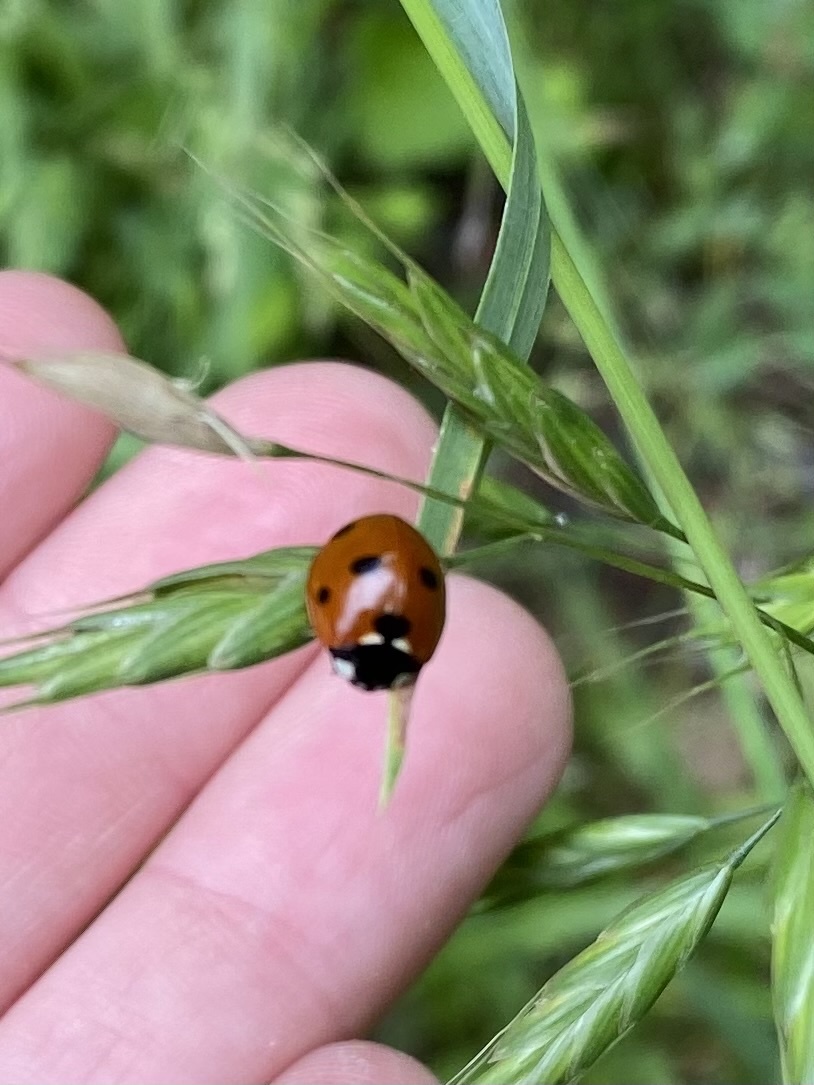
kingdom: Animalia
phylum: Arthropoda
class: Insecta
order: Coleoptera
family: Coccinellidae
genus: Coccinella
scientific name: Coccinella septempunctata
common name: Sevenspotted lady beetle
